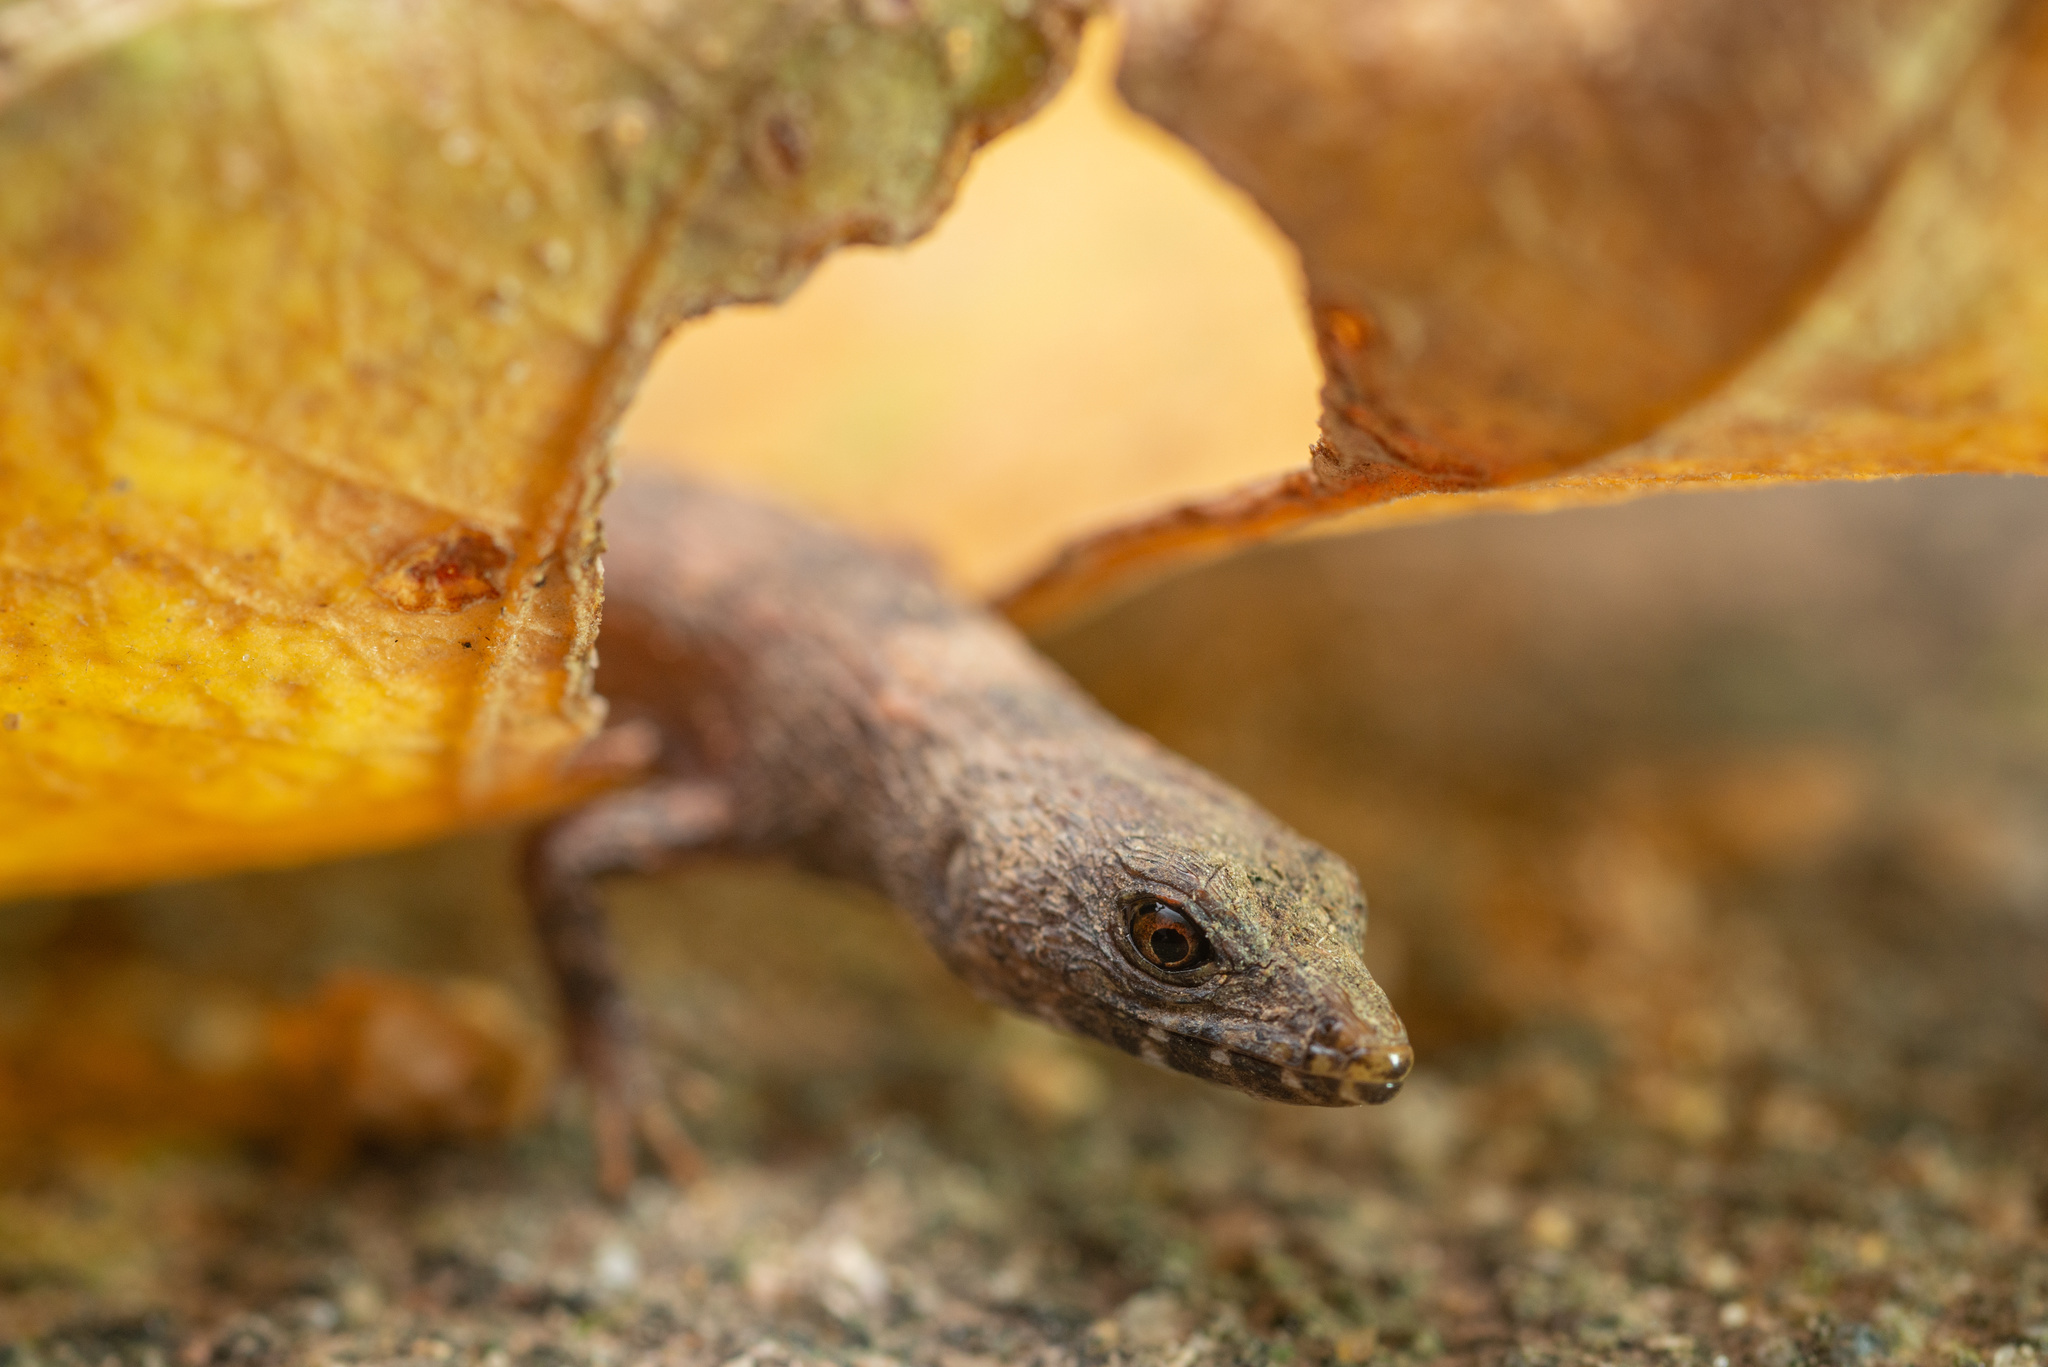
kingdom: Animalia
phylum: Chordata
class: Squamata
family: Scincidae
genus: Tropidophorus
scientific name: Tropidophorus sinicus
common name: Chinese water skink
